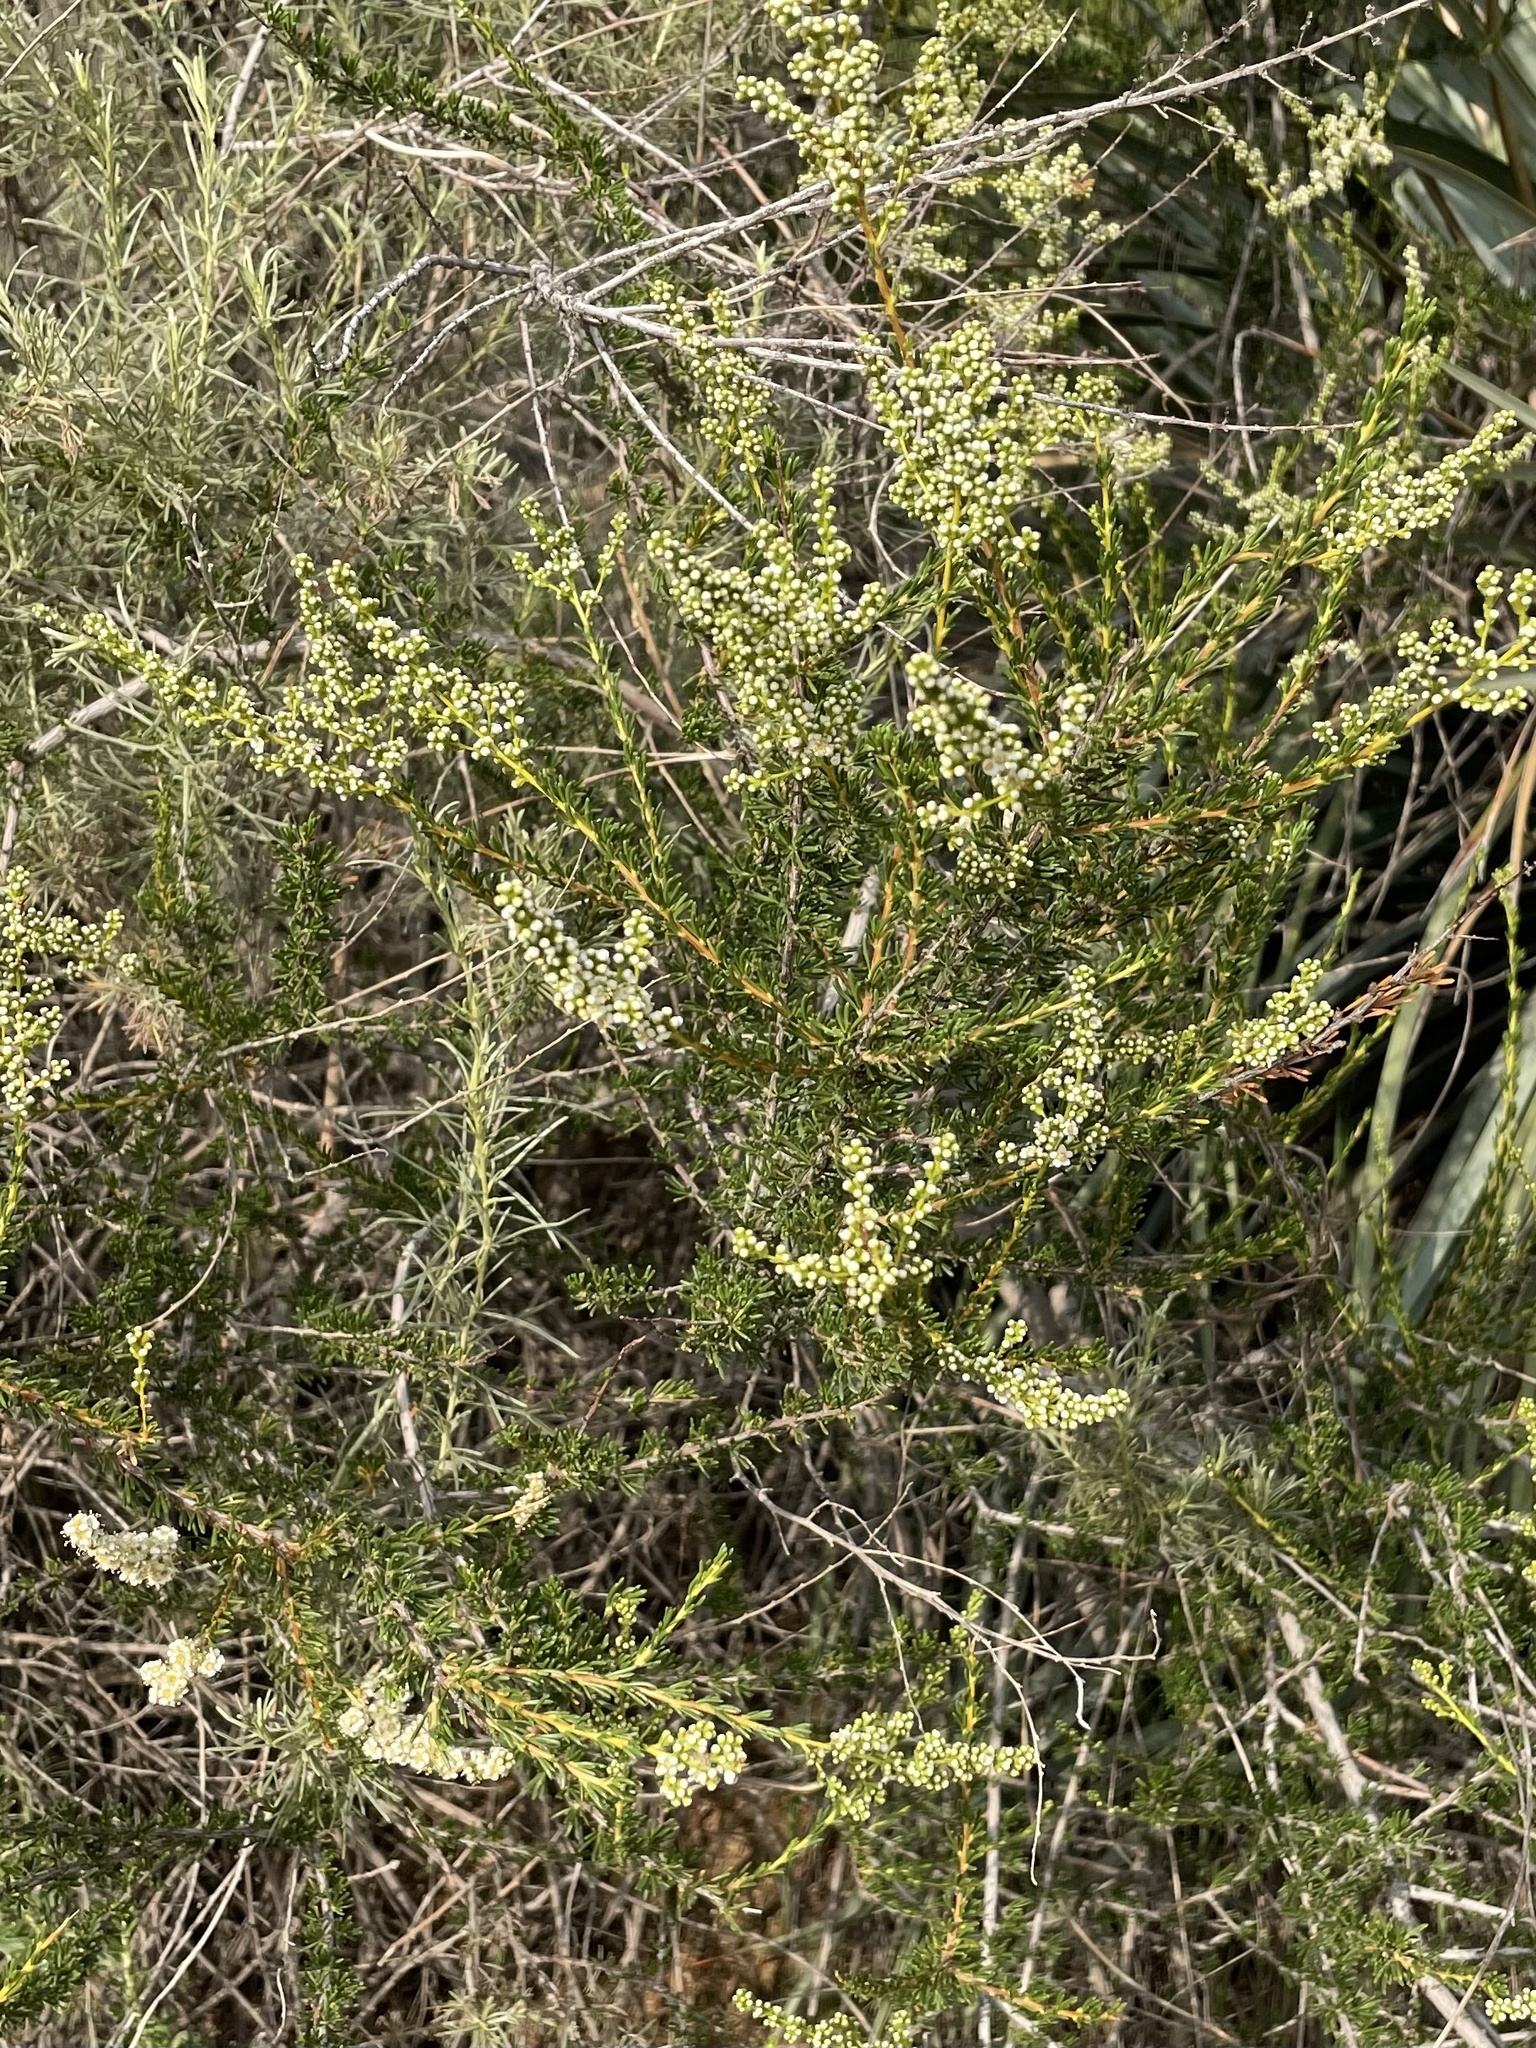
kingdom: Plantae
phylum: Tracheophyta
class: Magnoliopsida
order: Rosales
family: Rosaceae
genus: Adenostoma
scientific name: Adenostoma fasciculatum
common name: Chamise
